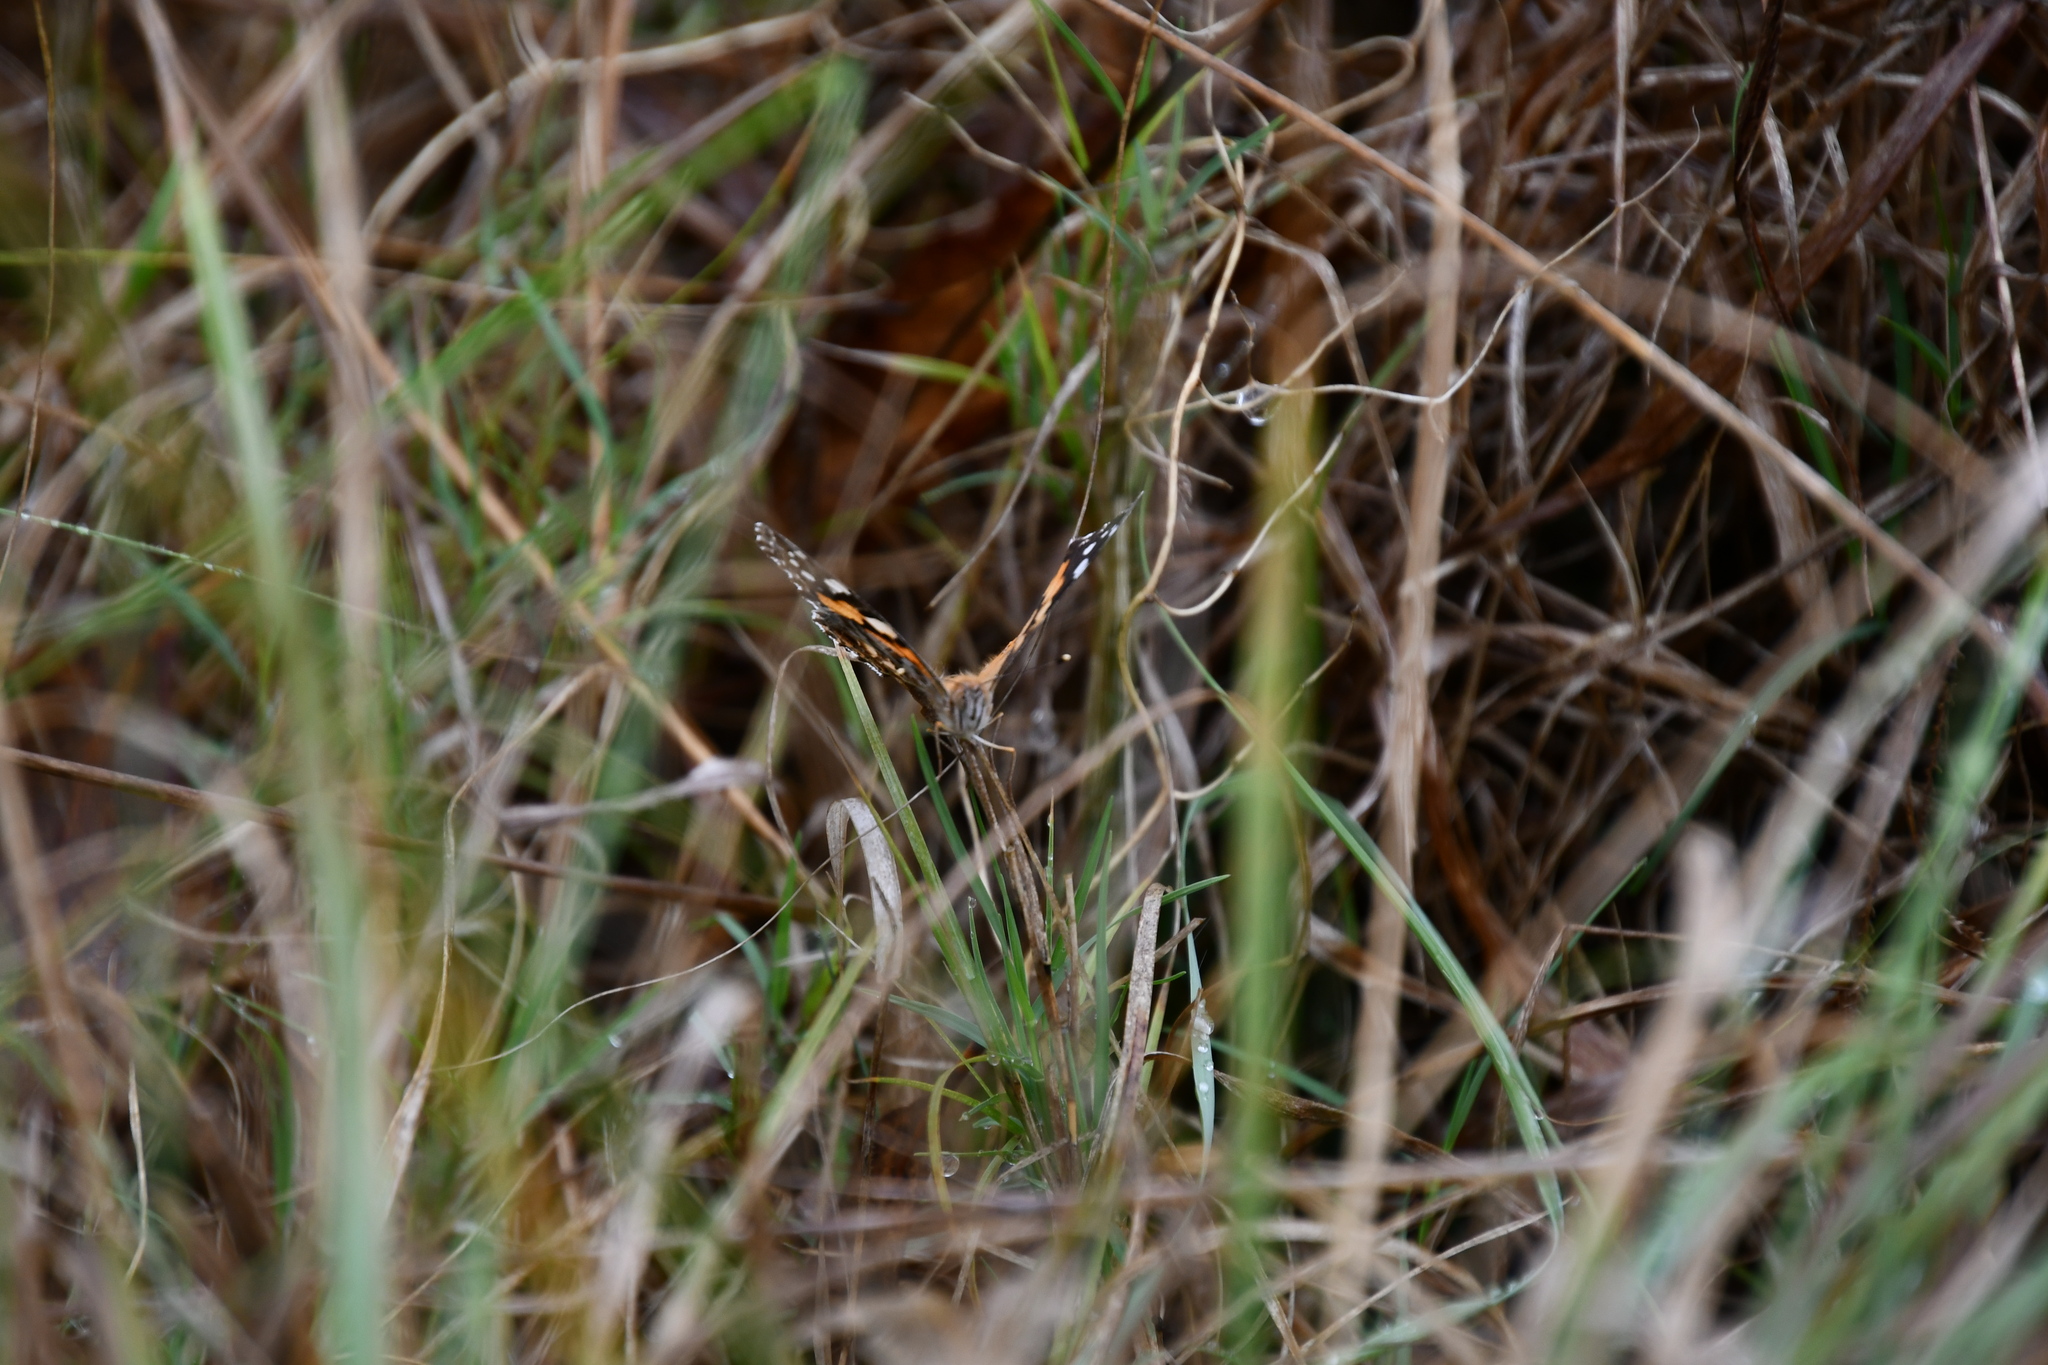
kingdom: Animalia
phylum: Arthropoda
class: Insecta
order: Lepidoptera
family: Nymphalidae
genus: Vanessa
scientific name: Vanessa kershawi
